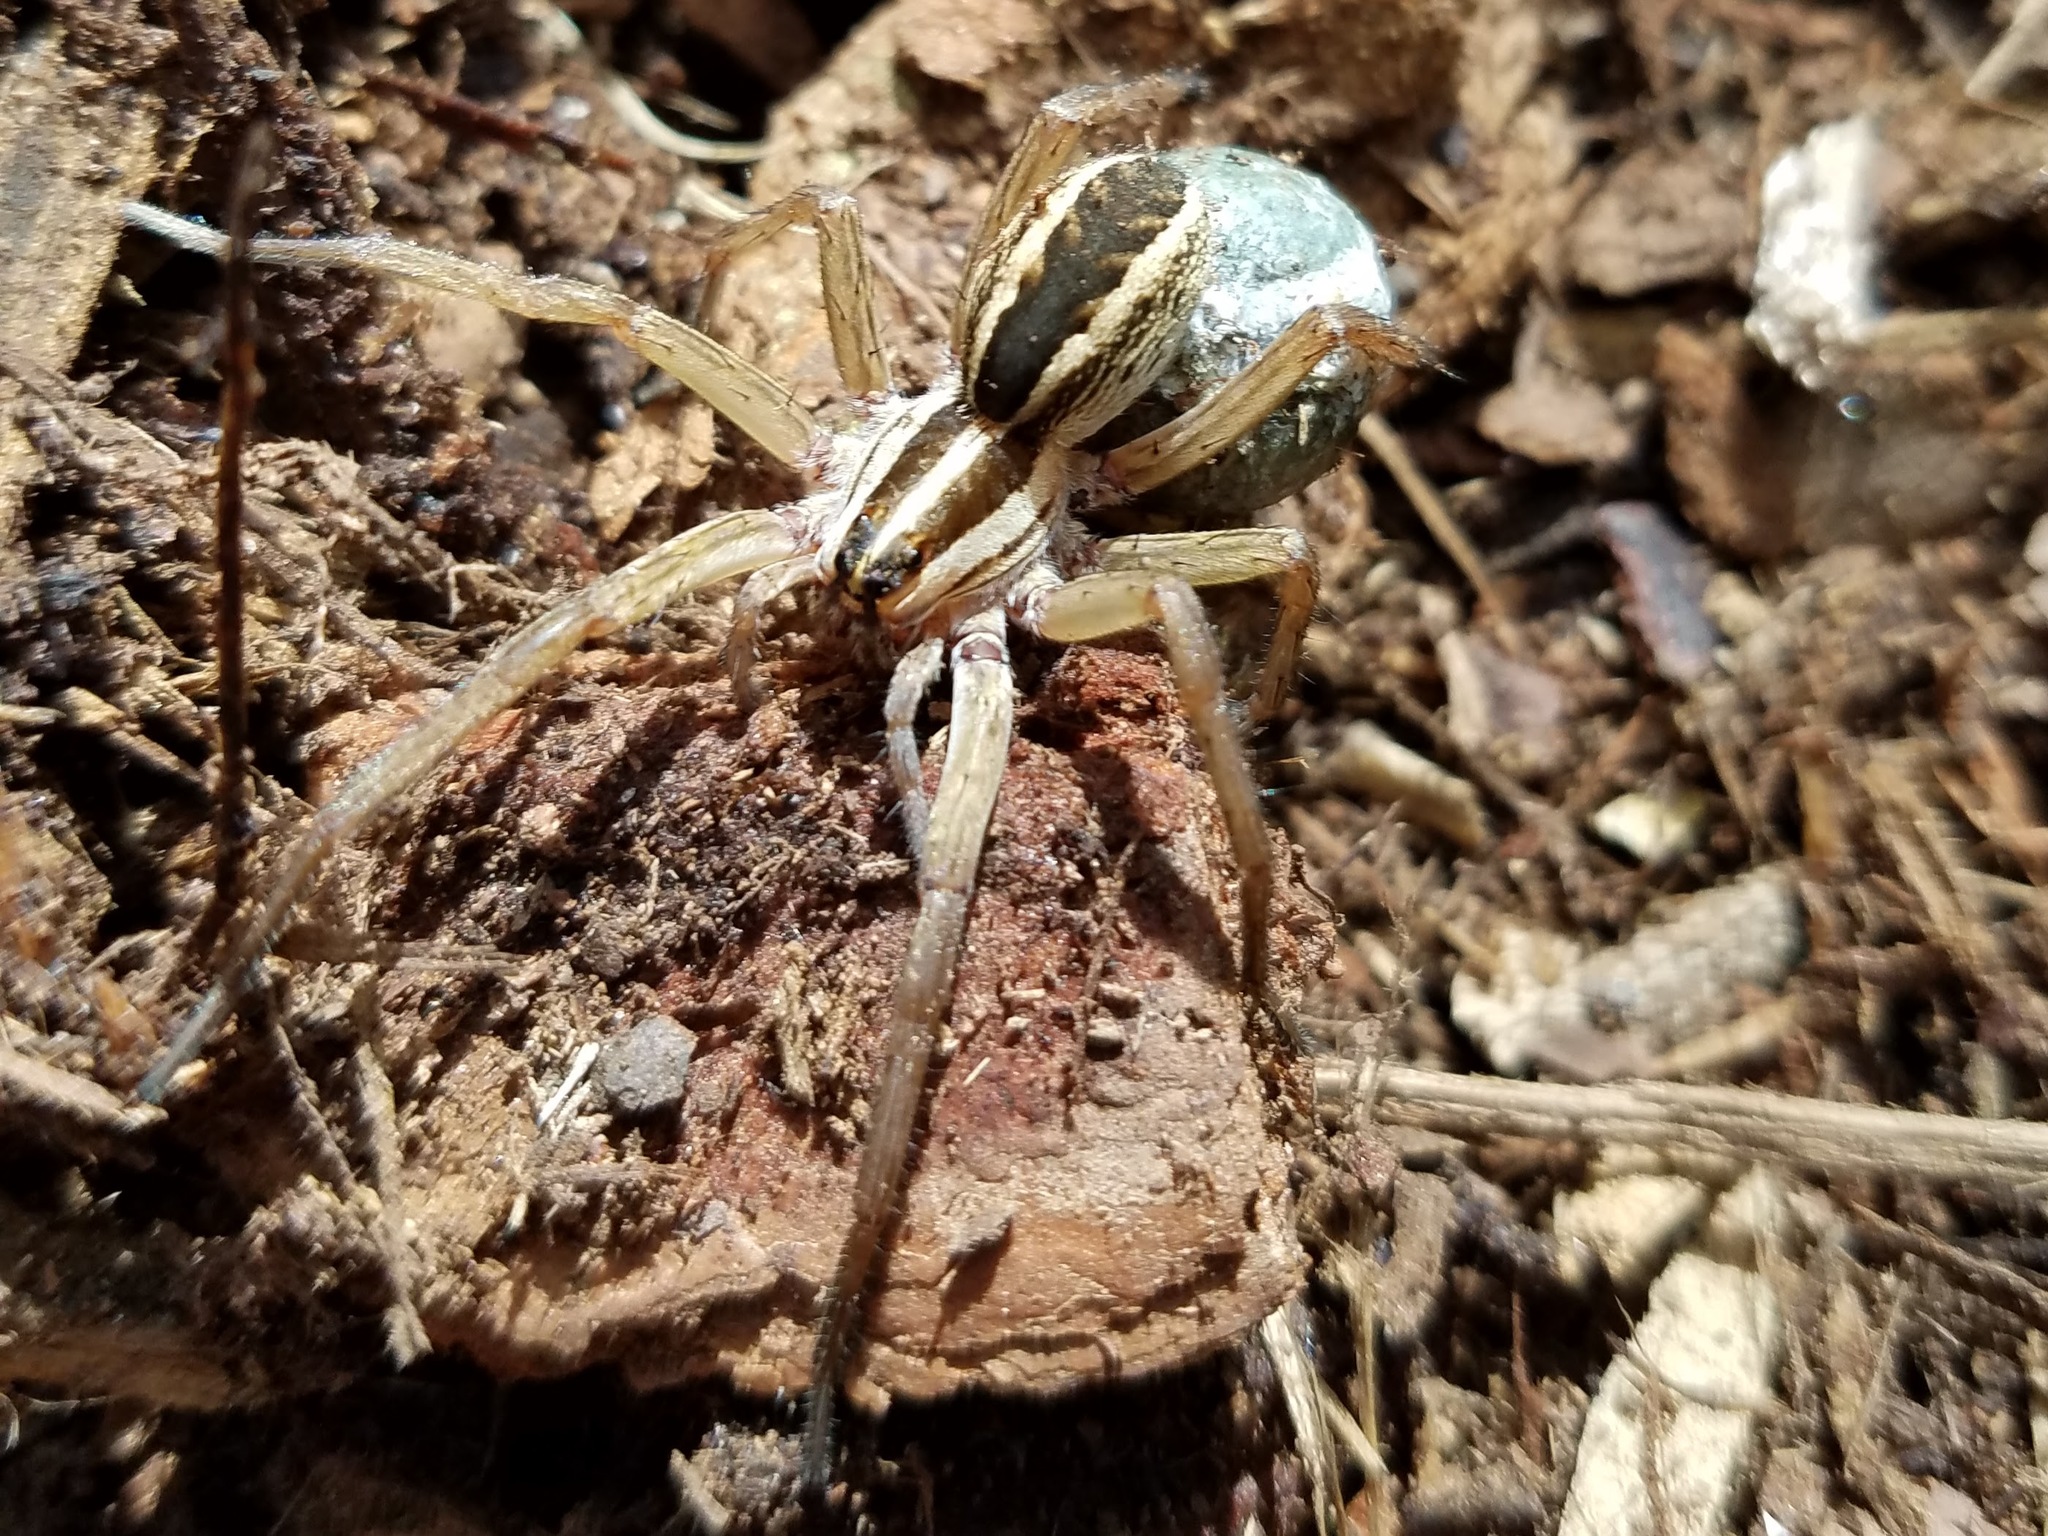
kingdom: Animalia
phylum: Arthropoda
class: Arachnida
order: Araneae
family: Lycosidae
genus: Rabidosa
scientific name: Rabidosa rabida
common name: Rabid wolf spider
